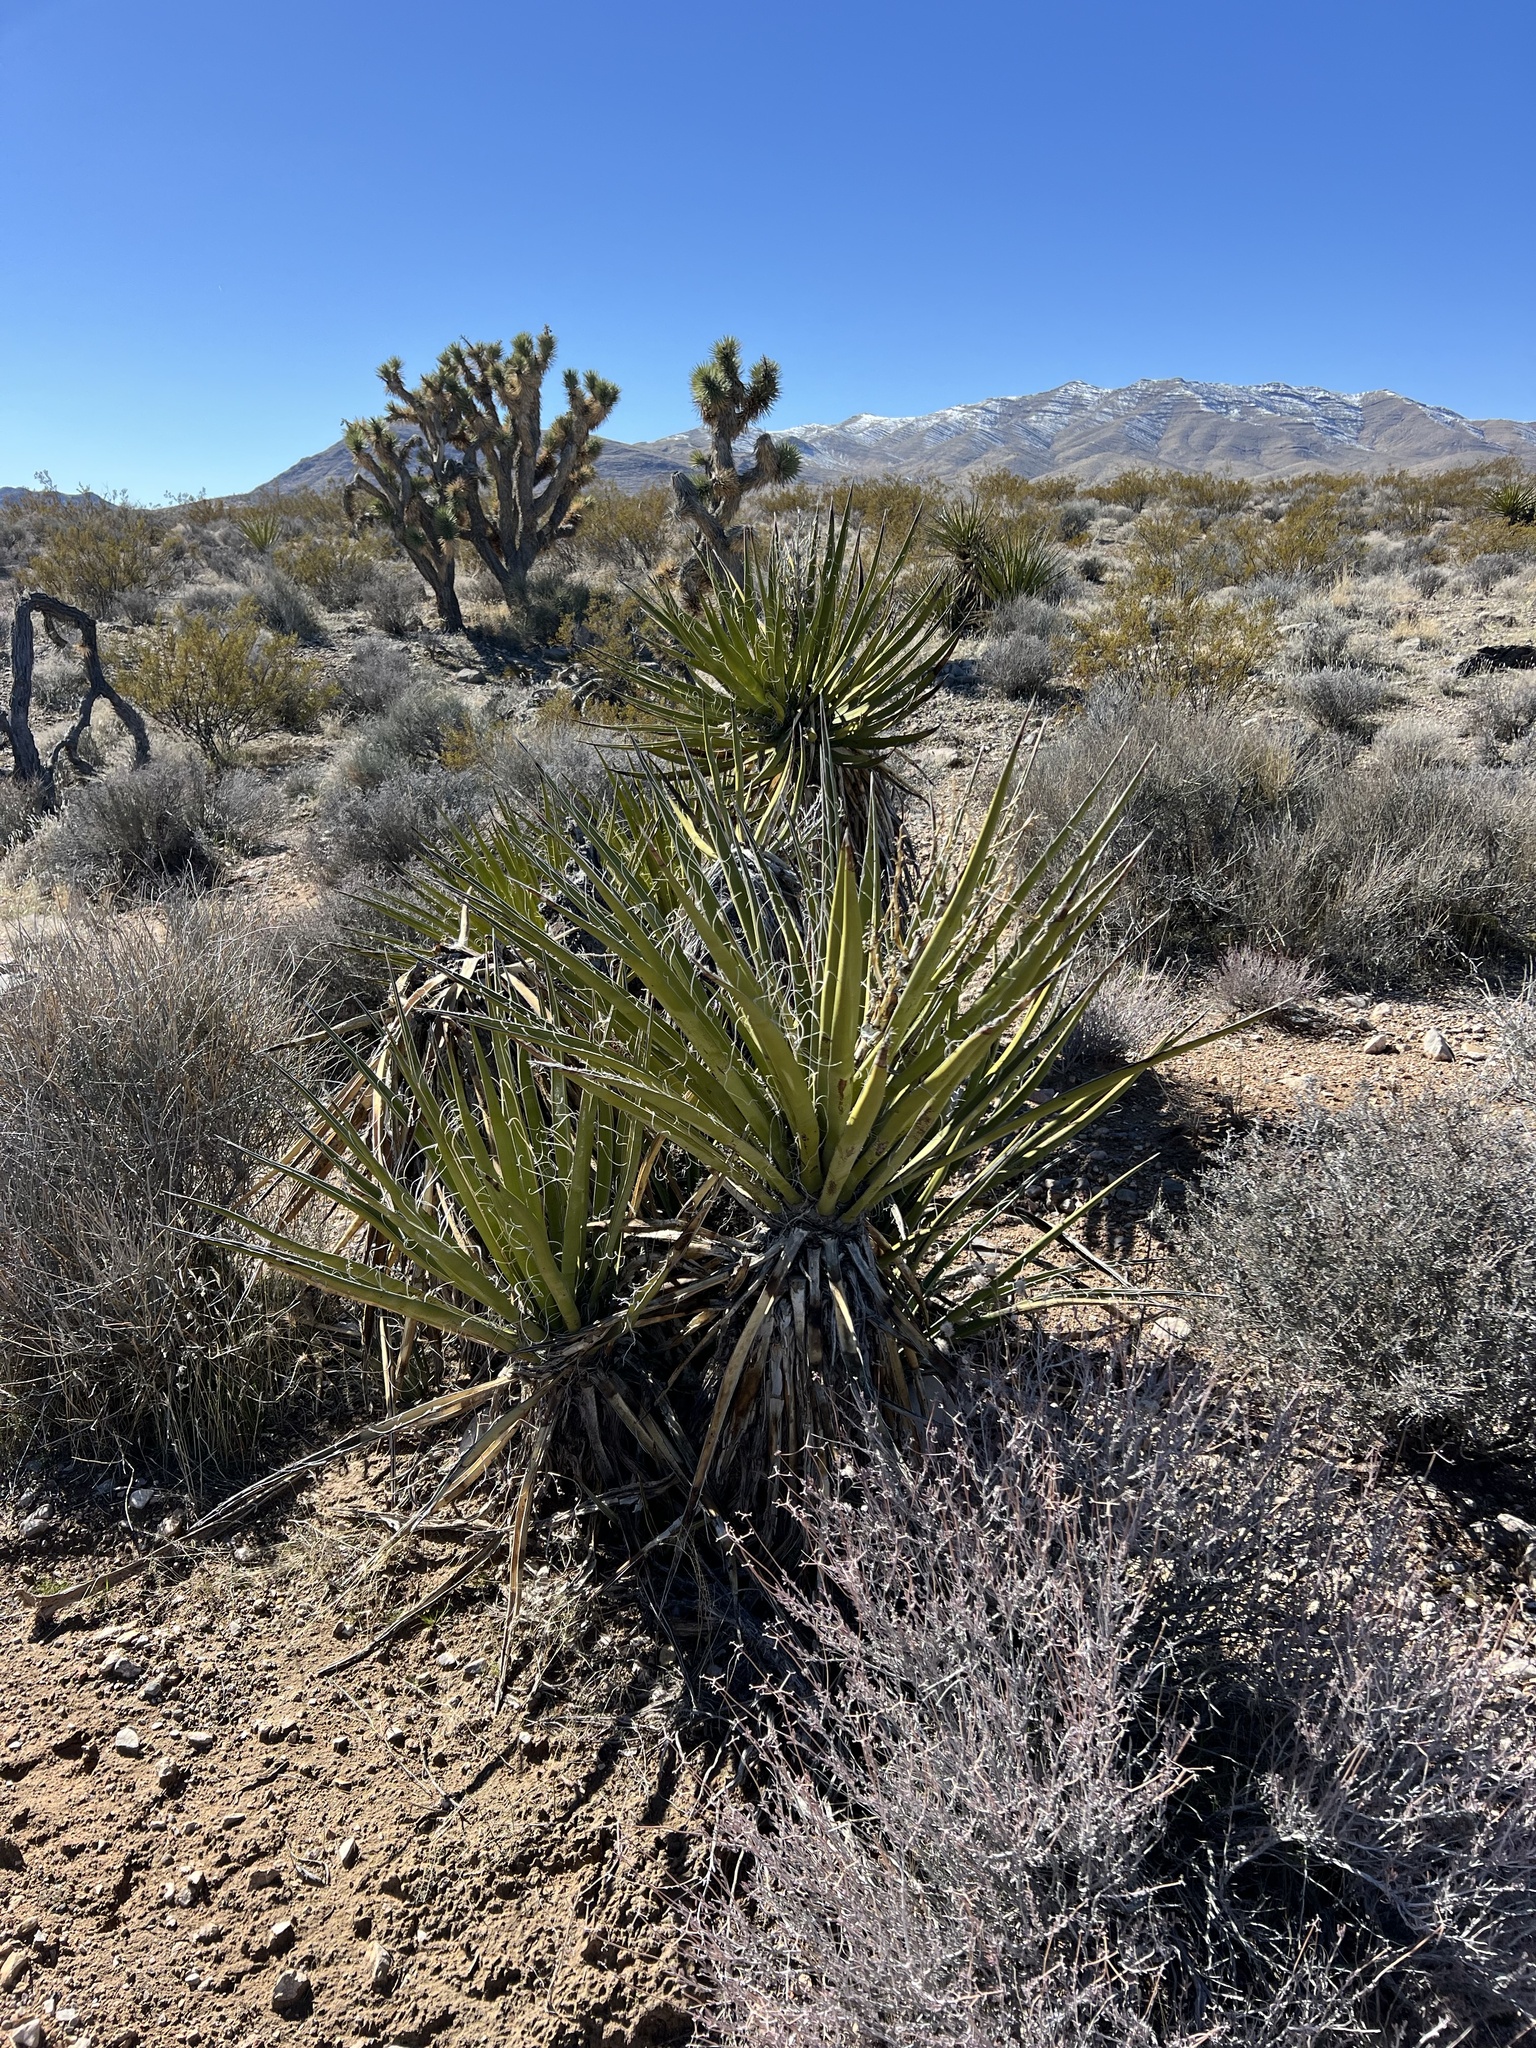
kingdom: Plantae
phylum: Tracheophyta
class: Liliopsida
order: Asparagales
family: Asparagaceae
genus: Yucca
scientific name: Yucca schidigera
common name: Mojave yucca
